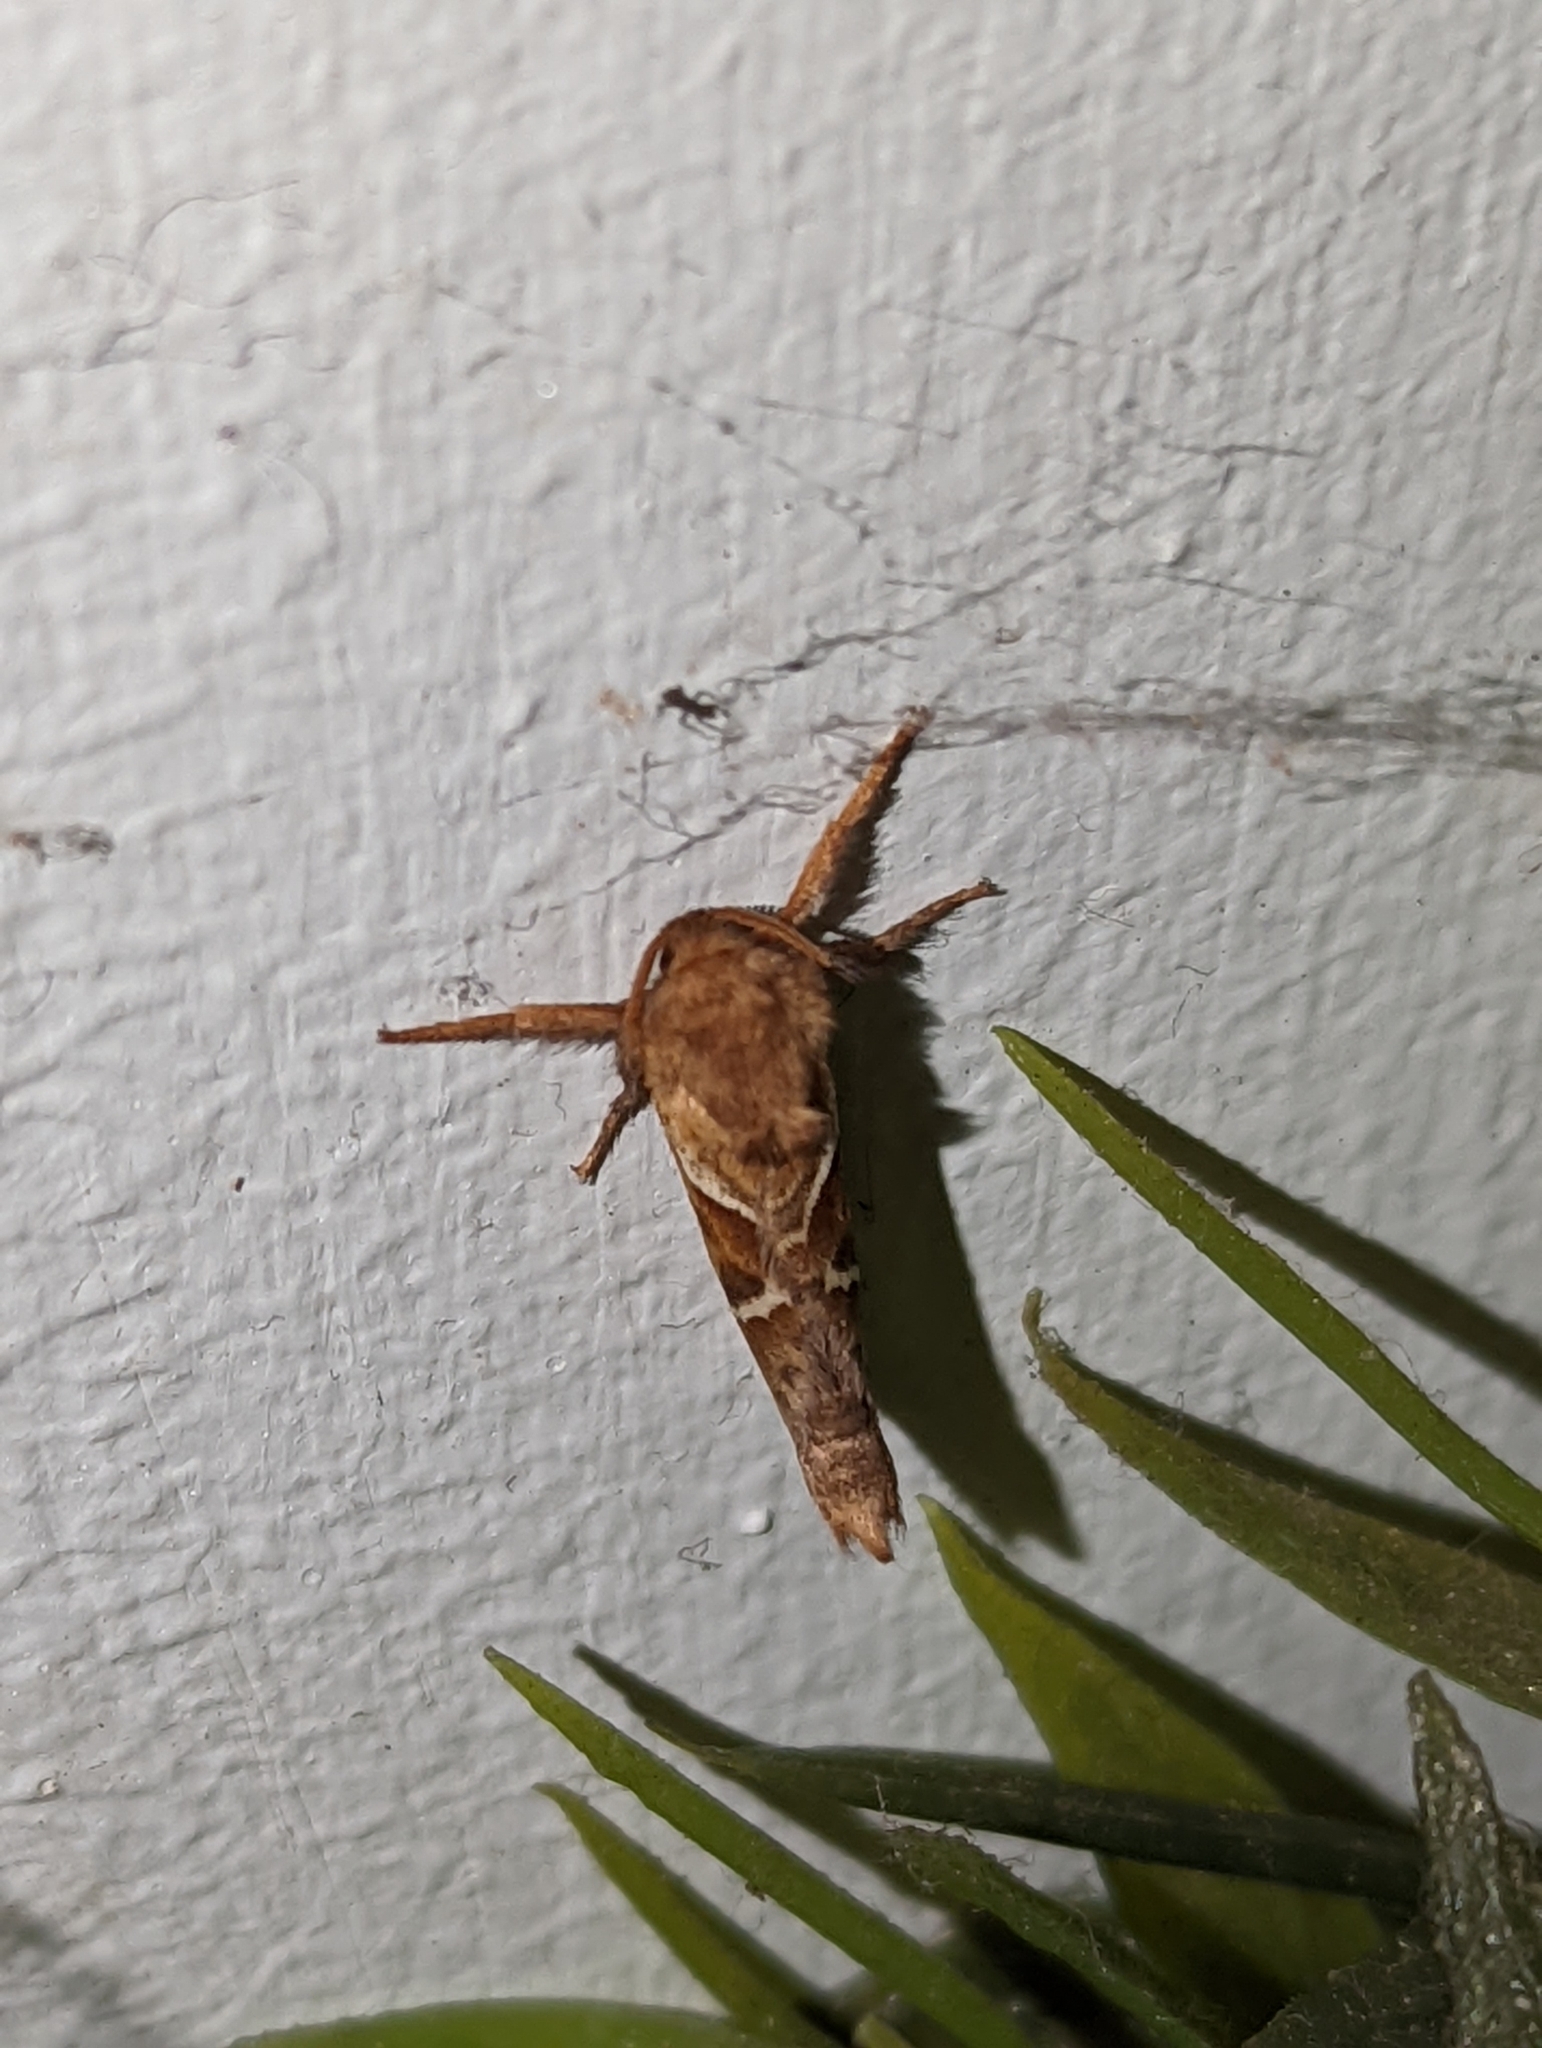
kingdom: Animalia
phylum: Arthropoda
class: Insecta
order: Lepidoptera
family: Hepialidae
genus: Triodia
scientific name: Triodia sylvina
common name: Orange swift
